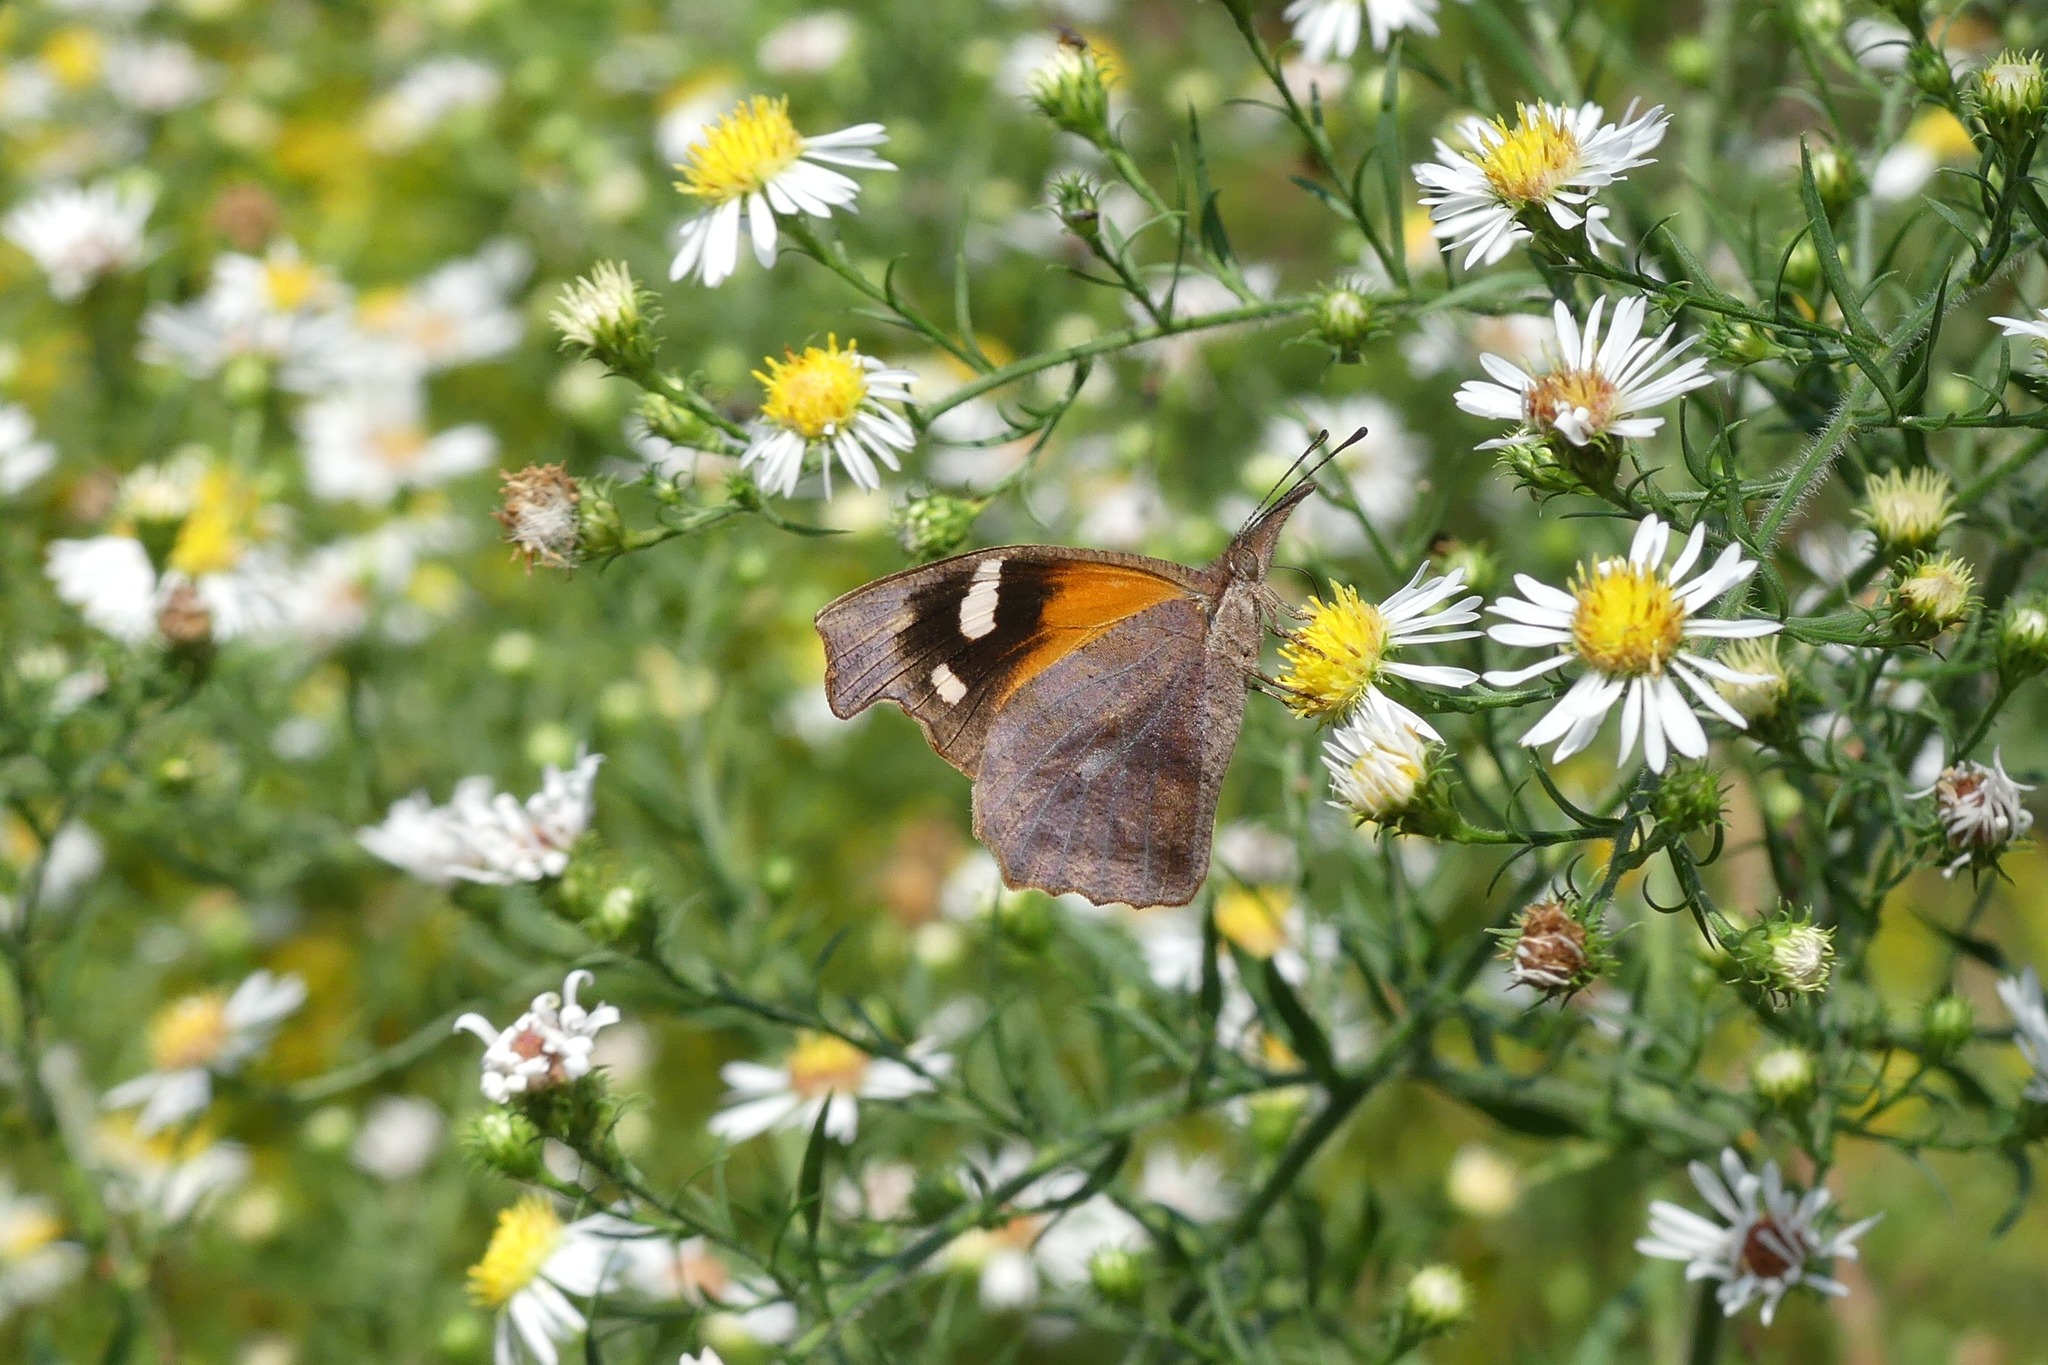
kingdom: Animalia
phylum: Arthropoda
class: Insecta
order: Lepidoptera
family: Nymphalidae
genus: Libytheana
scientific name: Libytheana carinenta
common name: American snout
